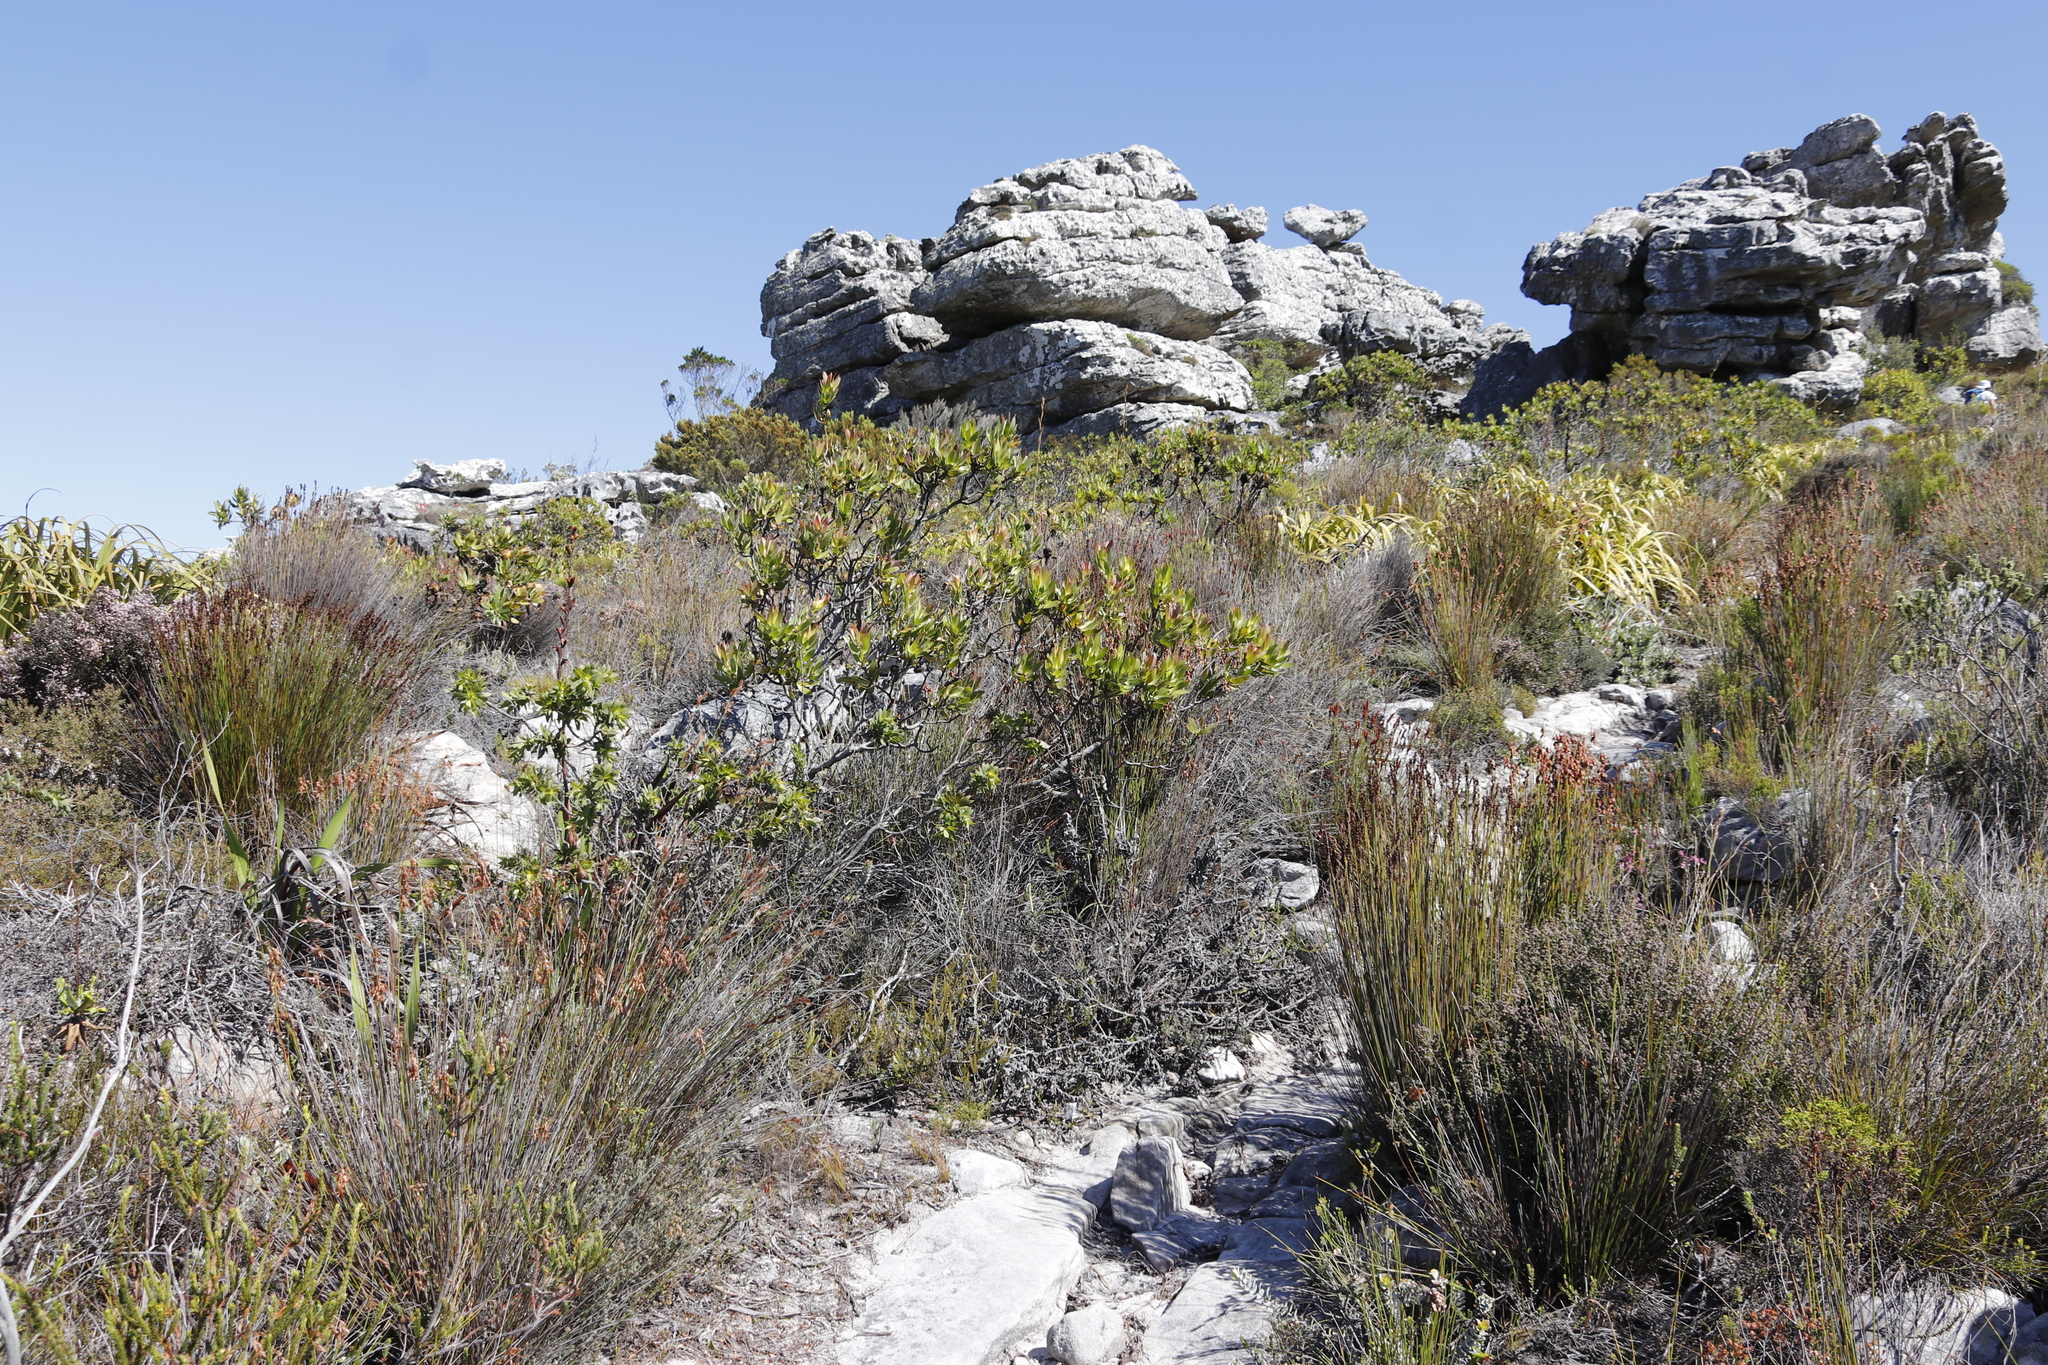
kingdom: Plantae
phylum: Tracheophyta
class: Magnoliopsida
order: Proteales
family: Proteaceae
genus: Leucadendron
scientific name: Leucadendron laureolum
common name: Golden sunshinebush
